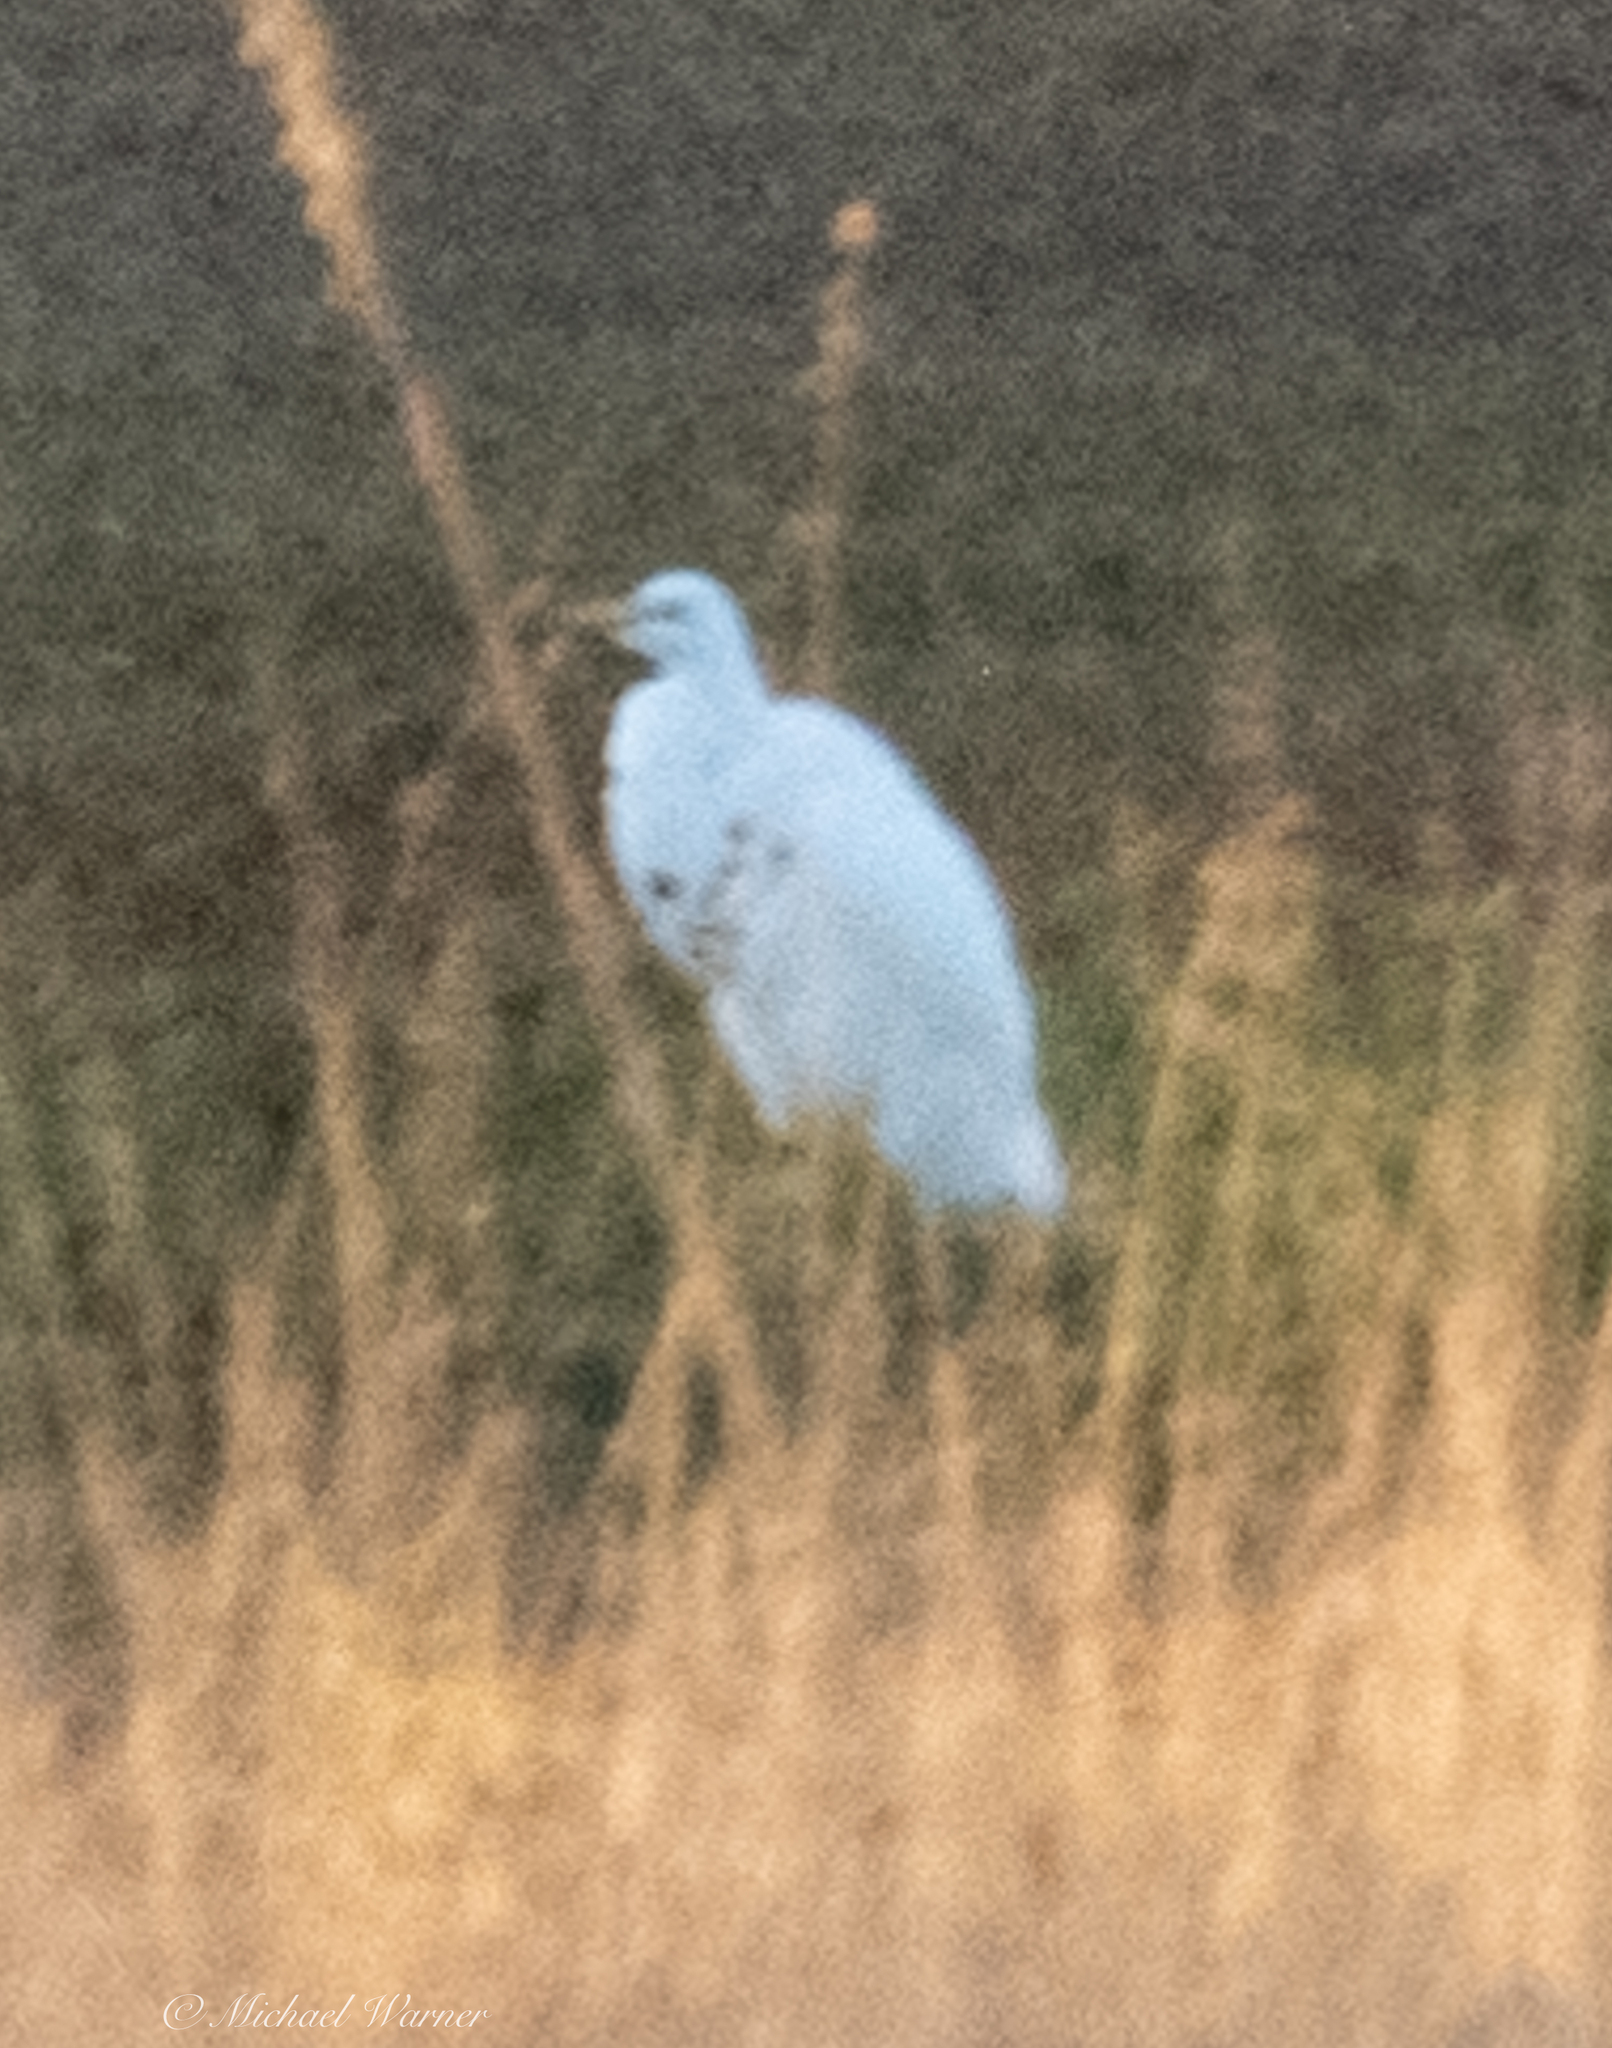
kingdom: Animalia
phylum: Chordata
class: Aves
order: Pelecaniformes
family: Ardeidae
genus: Ardea
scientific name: Ardea alba
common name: Great egret
